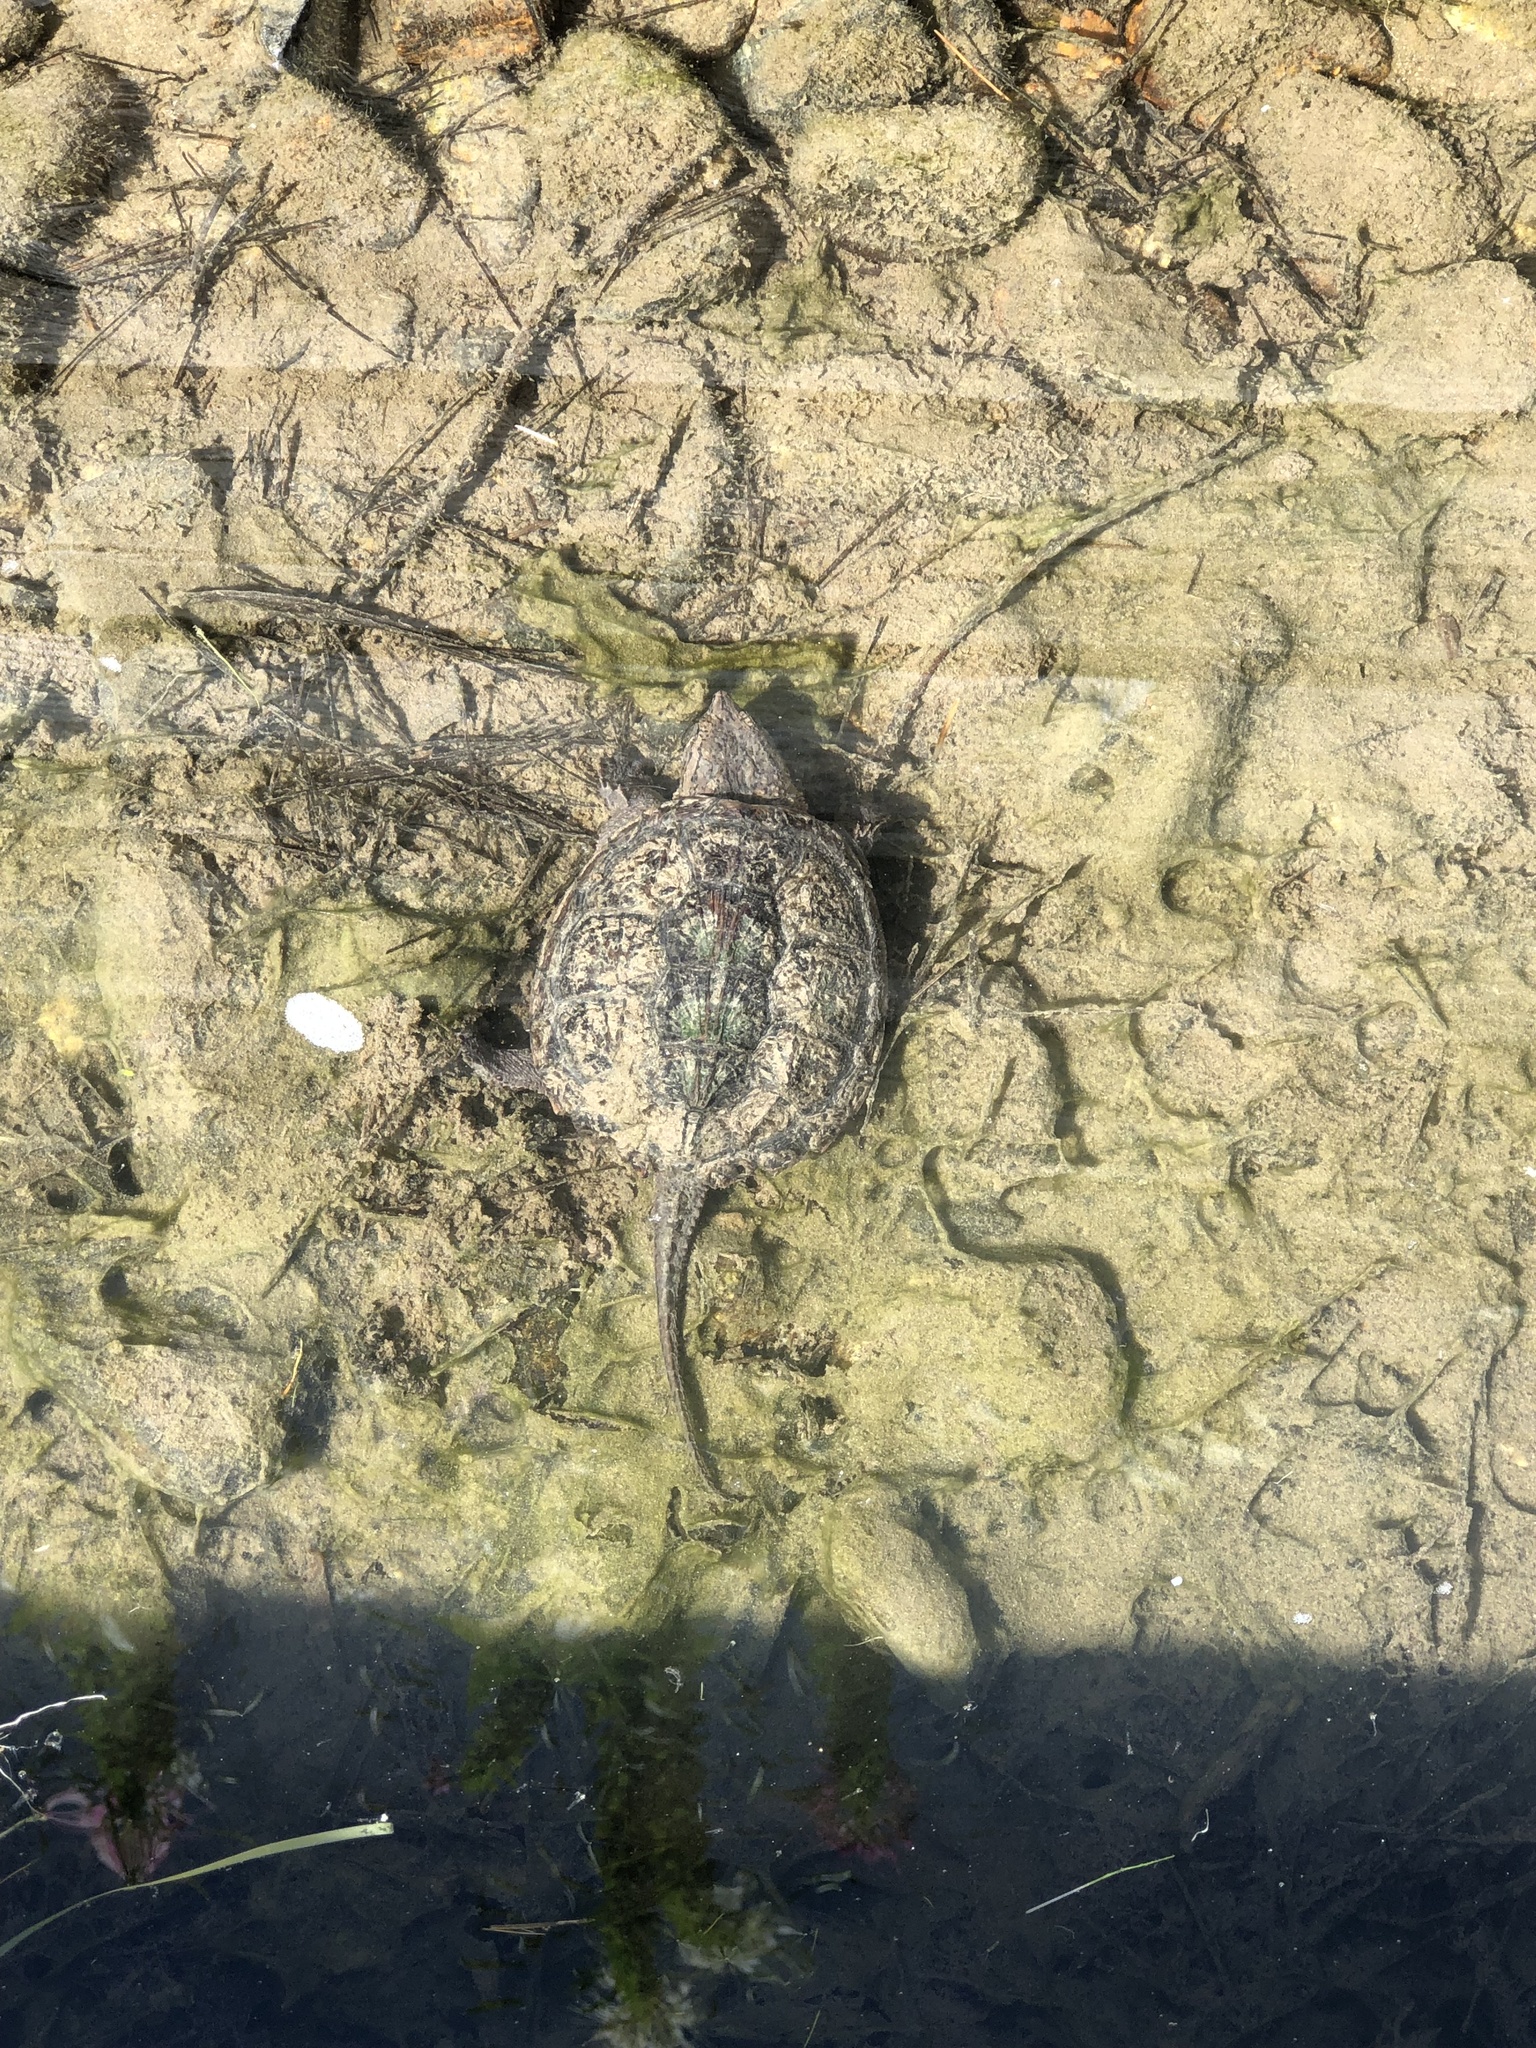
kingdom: Animalia
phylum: Chordata
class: Testudines
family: Chelydridae
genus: Chelydra
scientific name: Chelydra serpentina
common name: Common snapping turtle
